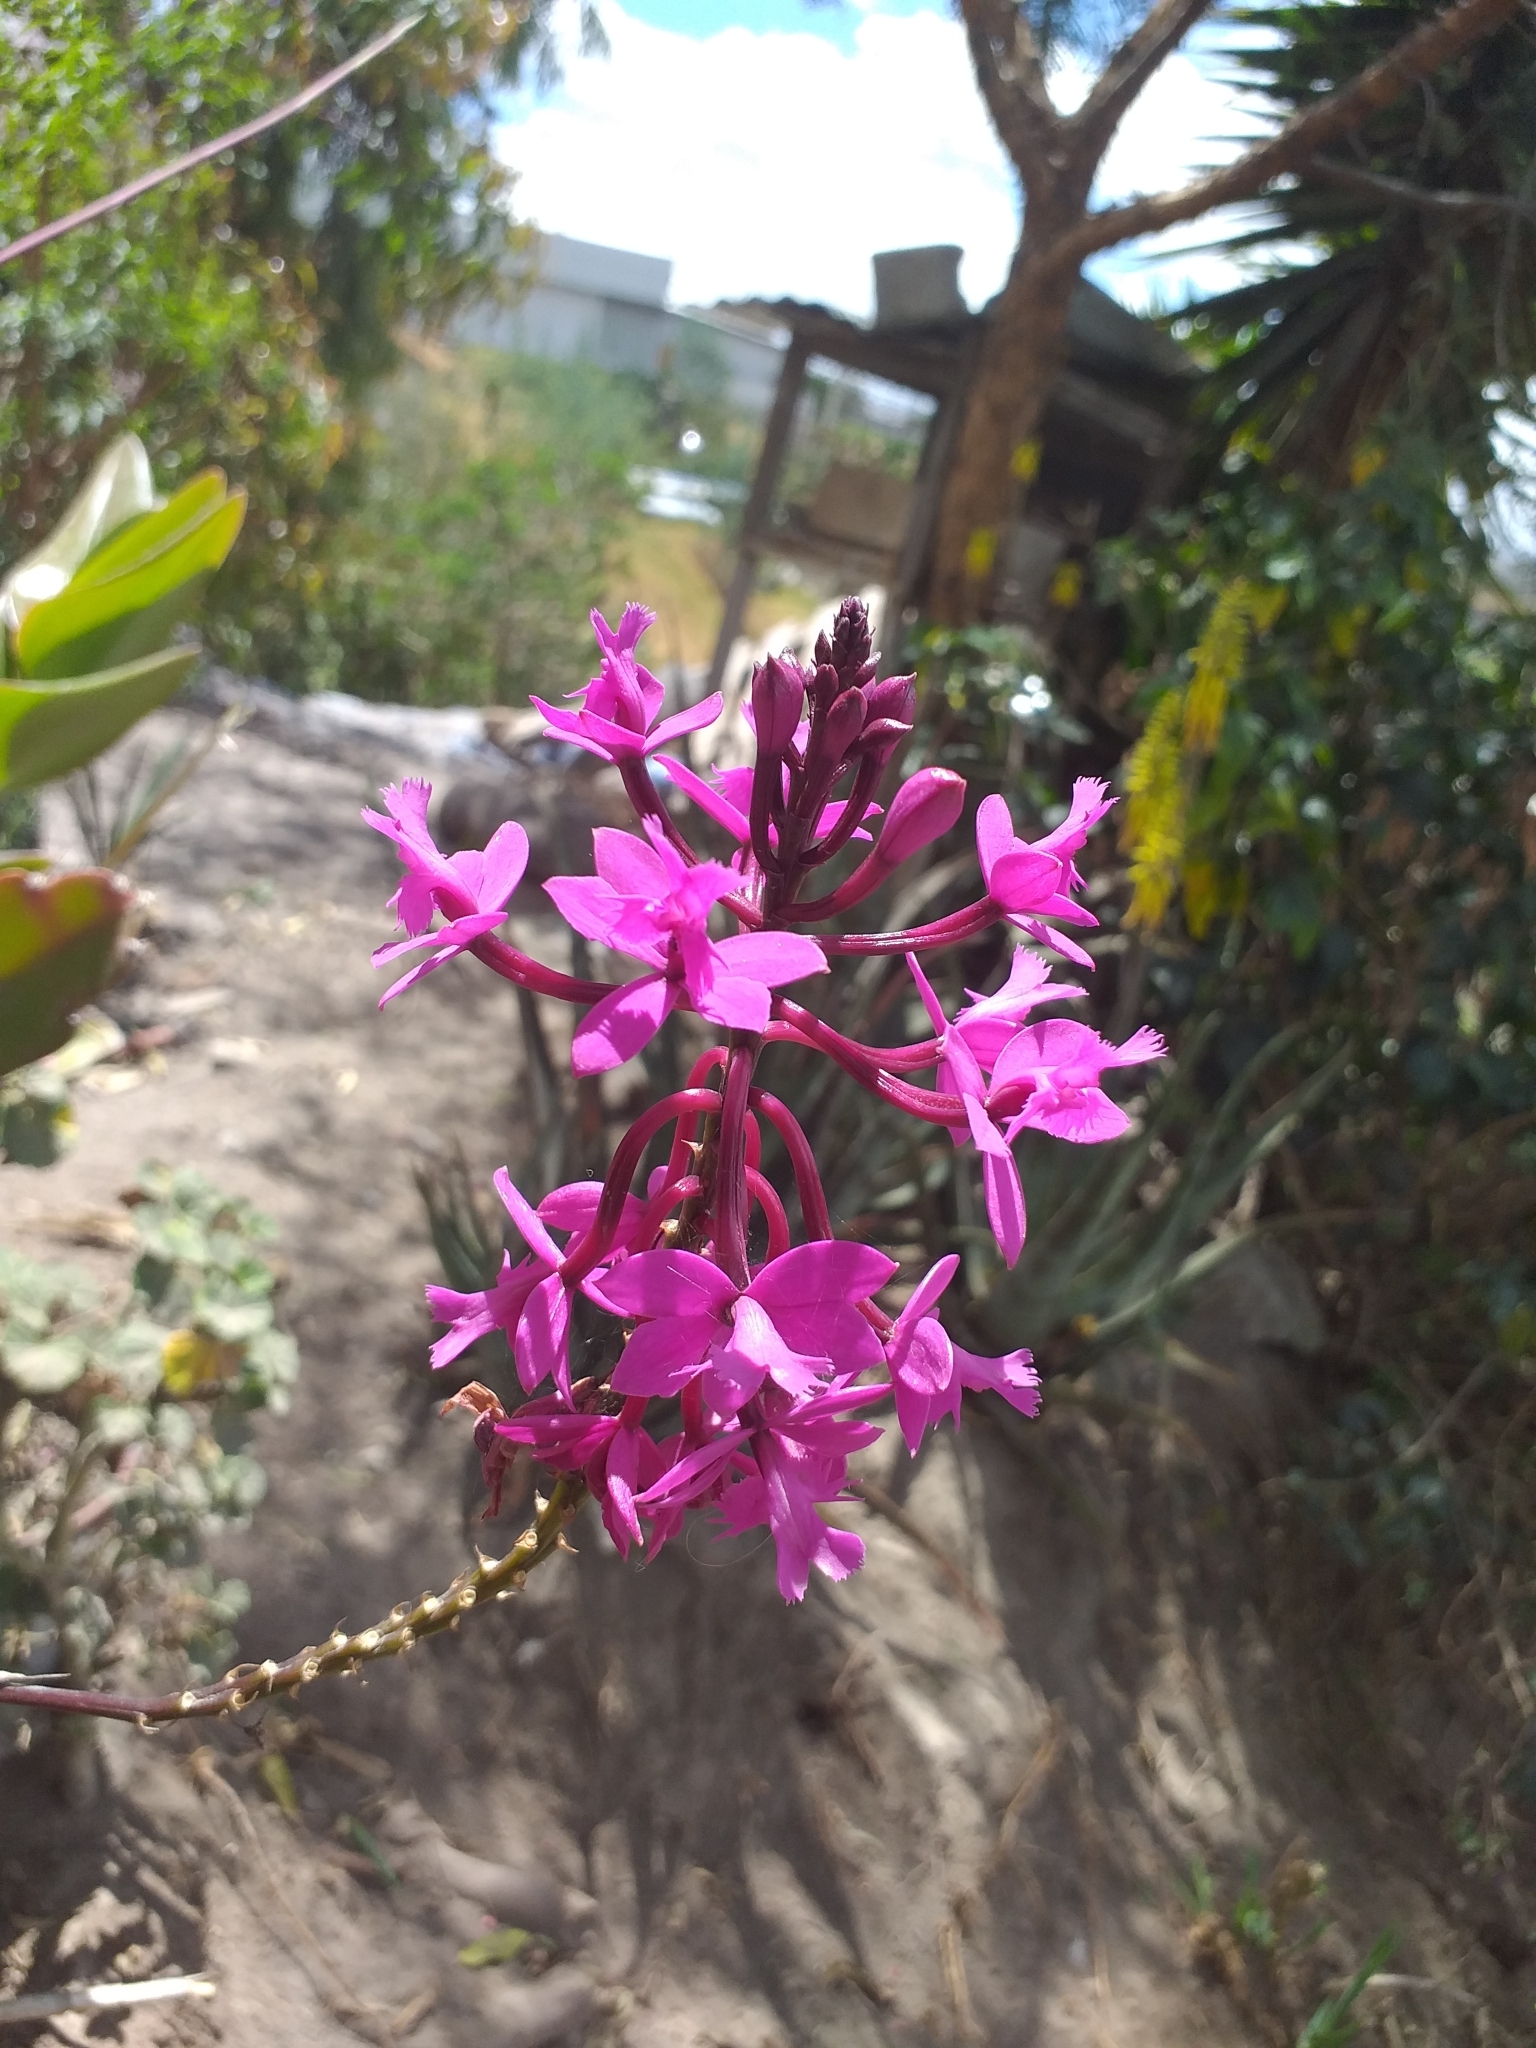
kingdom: Plantae
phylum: Tracheophyta
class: Liliopsida
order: Asparagales
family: Orchidaceae
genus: Epidendrum
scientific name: Epidendrum jamiesonis
